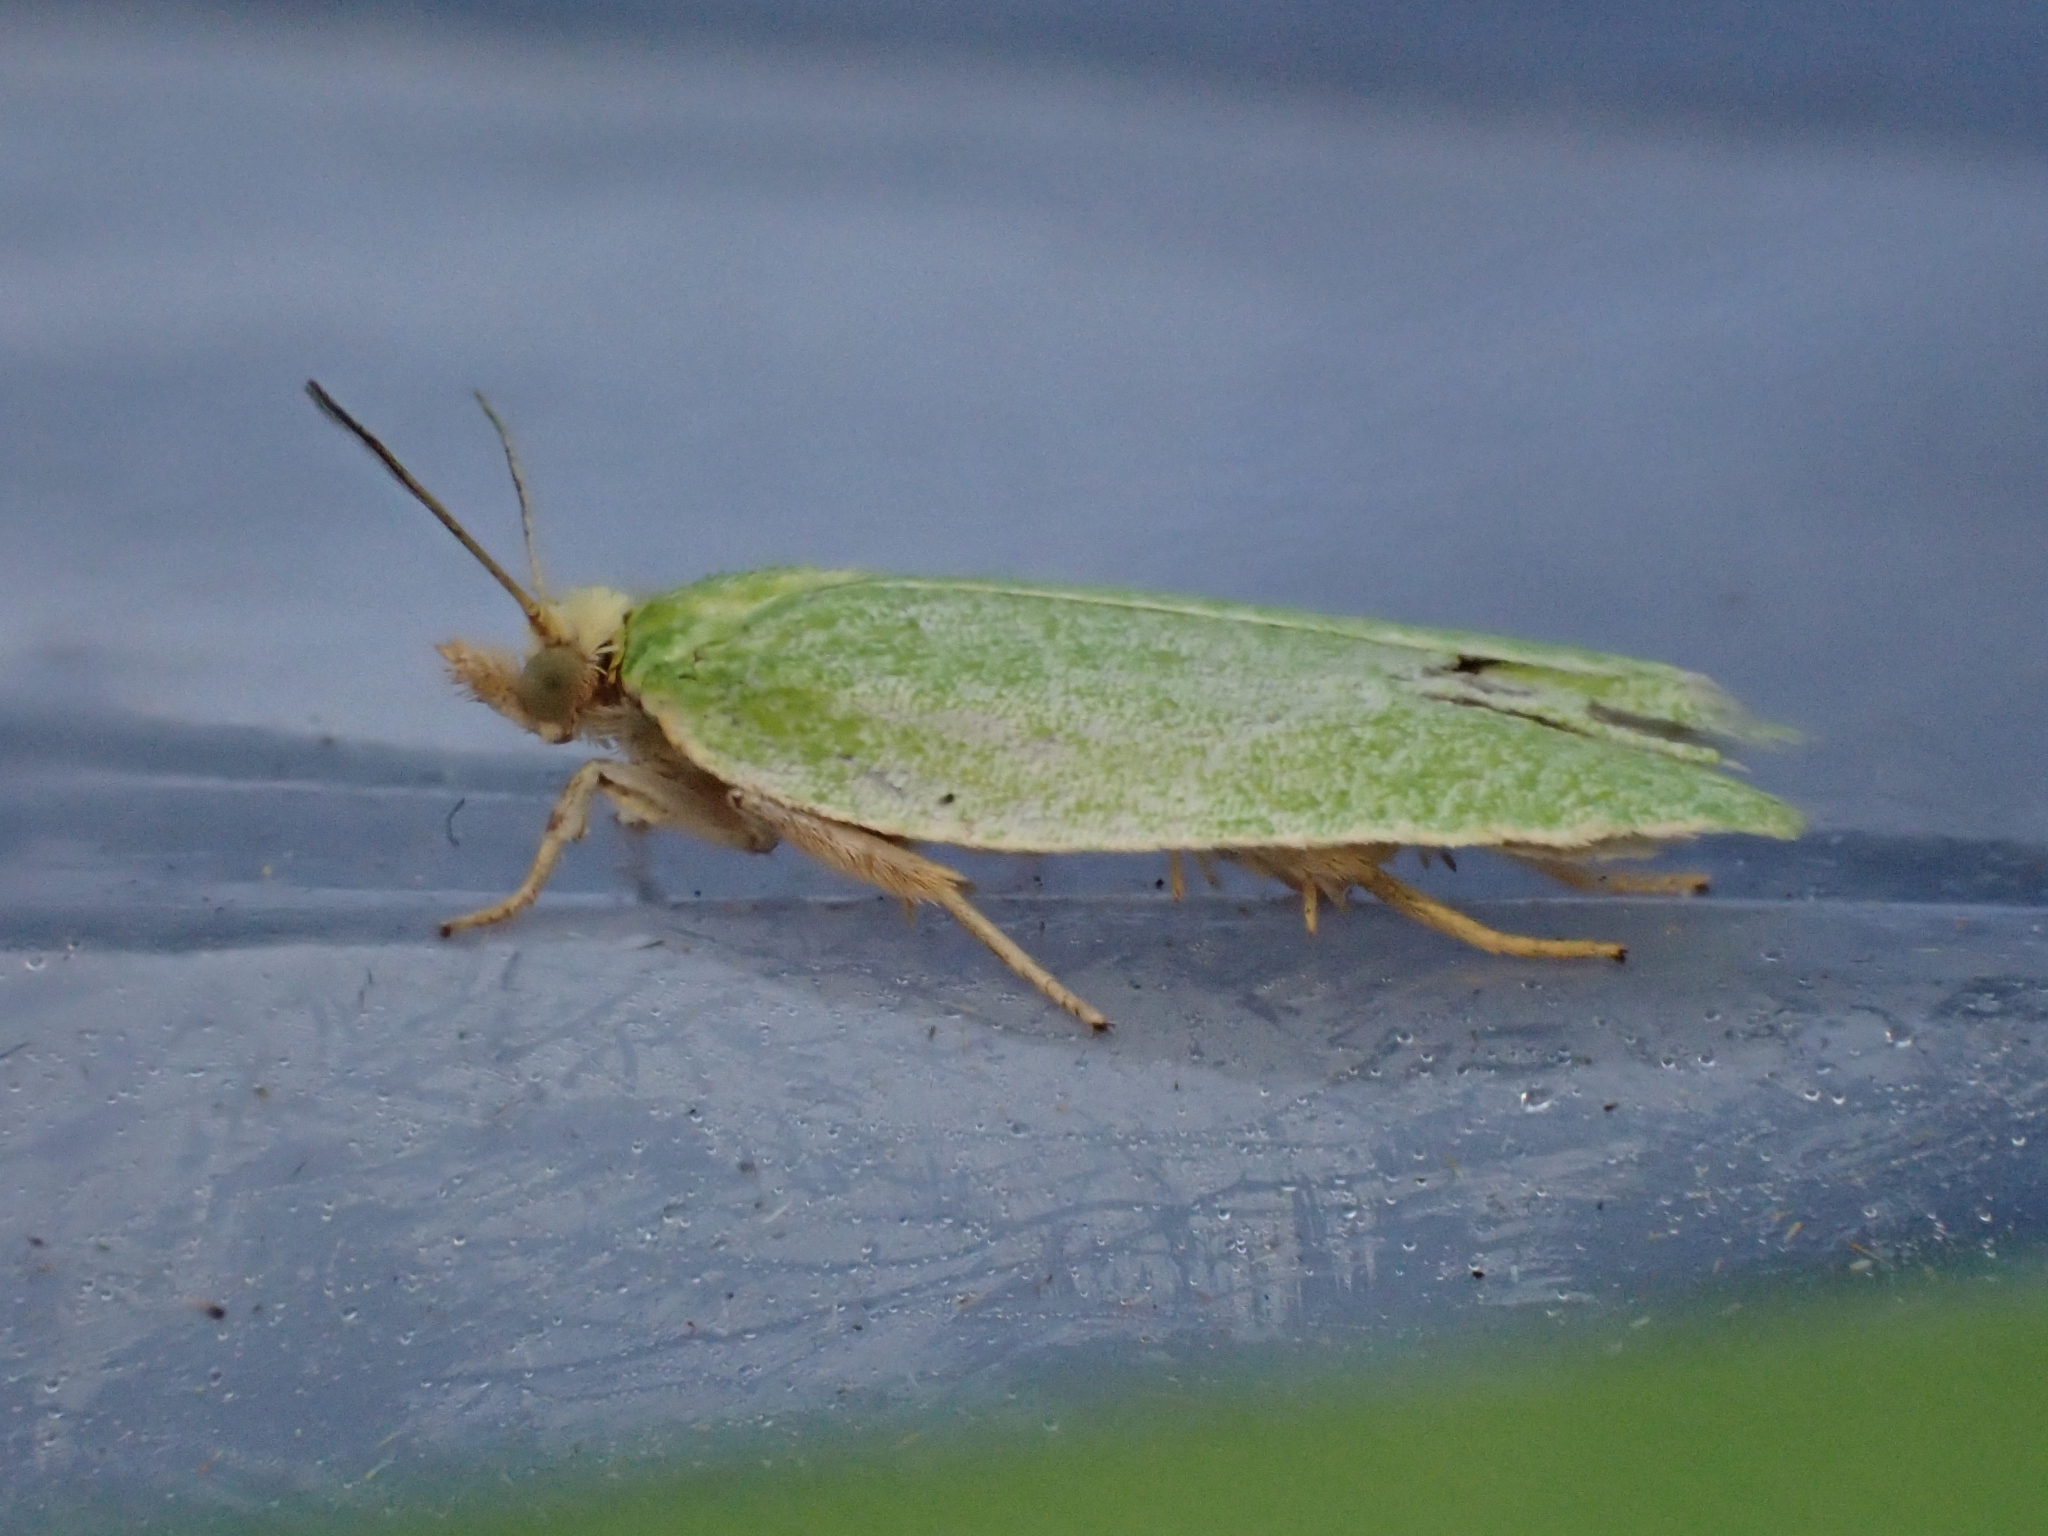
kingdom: Animalia
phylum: Arthropoda
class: Insecta
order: Lepidoptera
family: Tortricidae
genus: Tortrix
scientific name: Tortrix viridana
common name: Green oak tortrix
